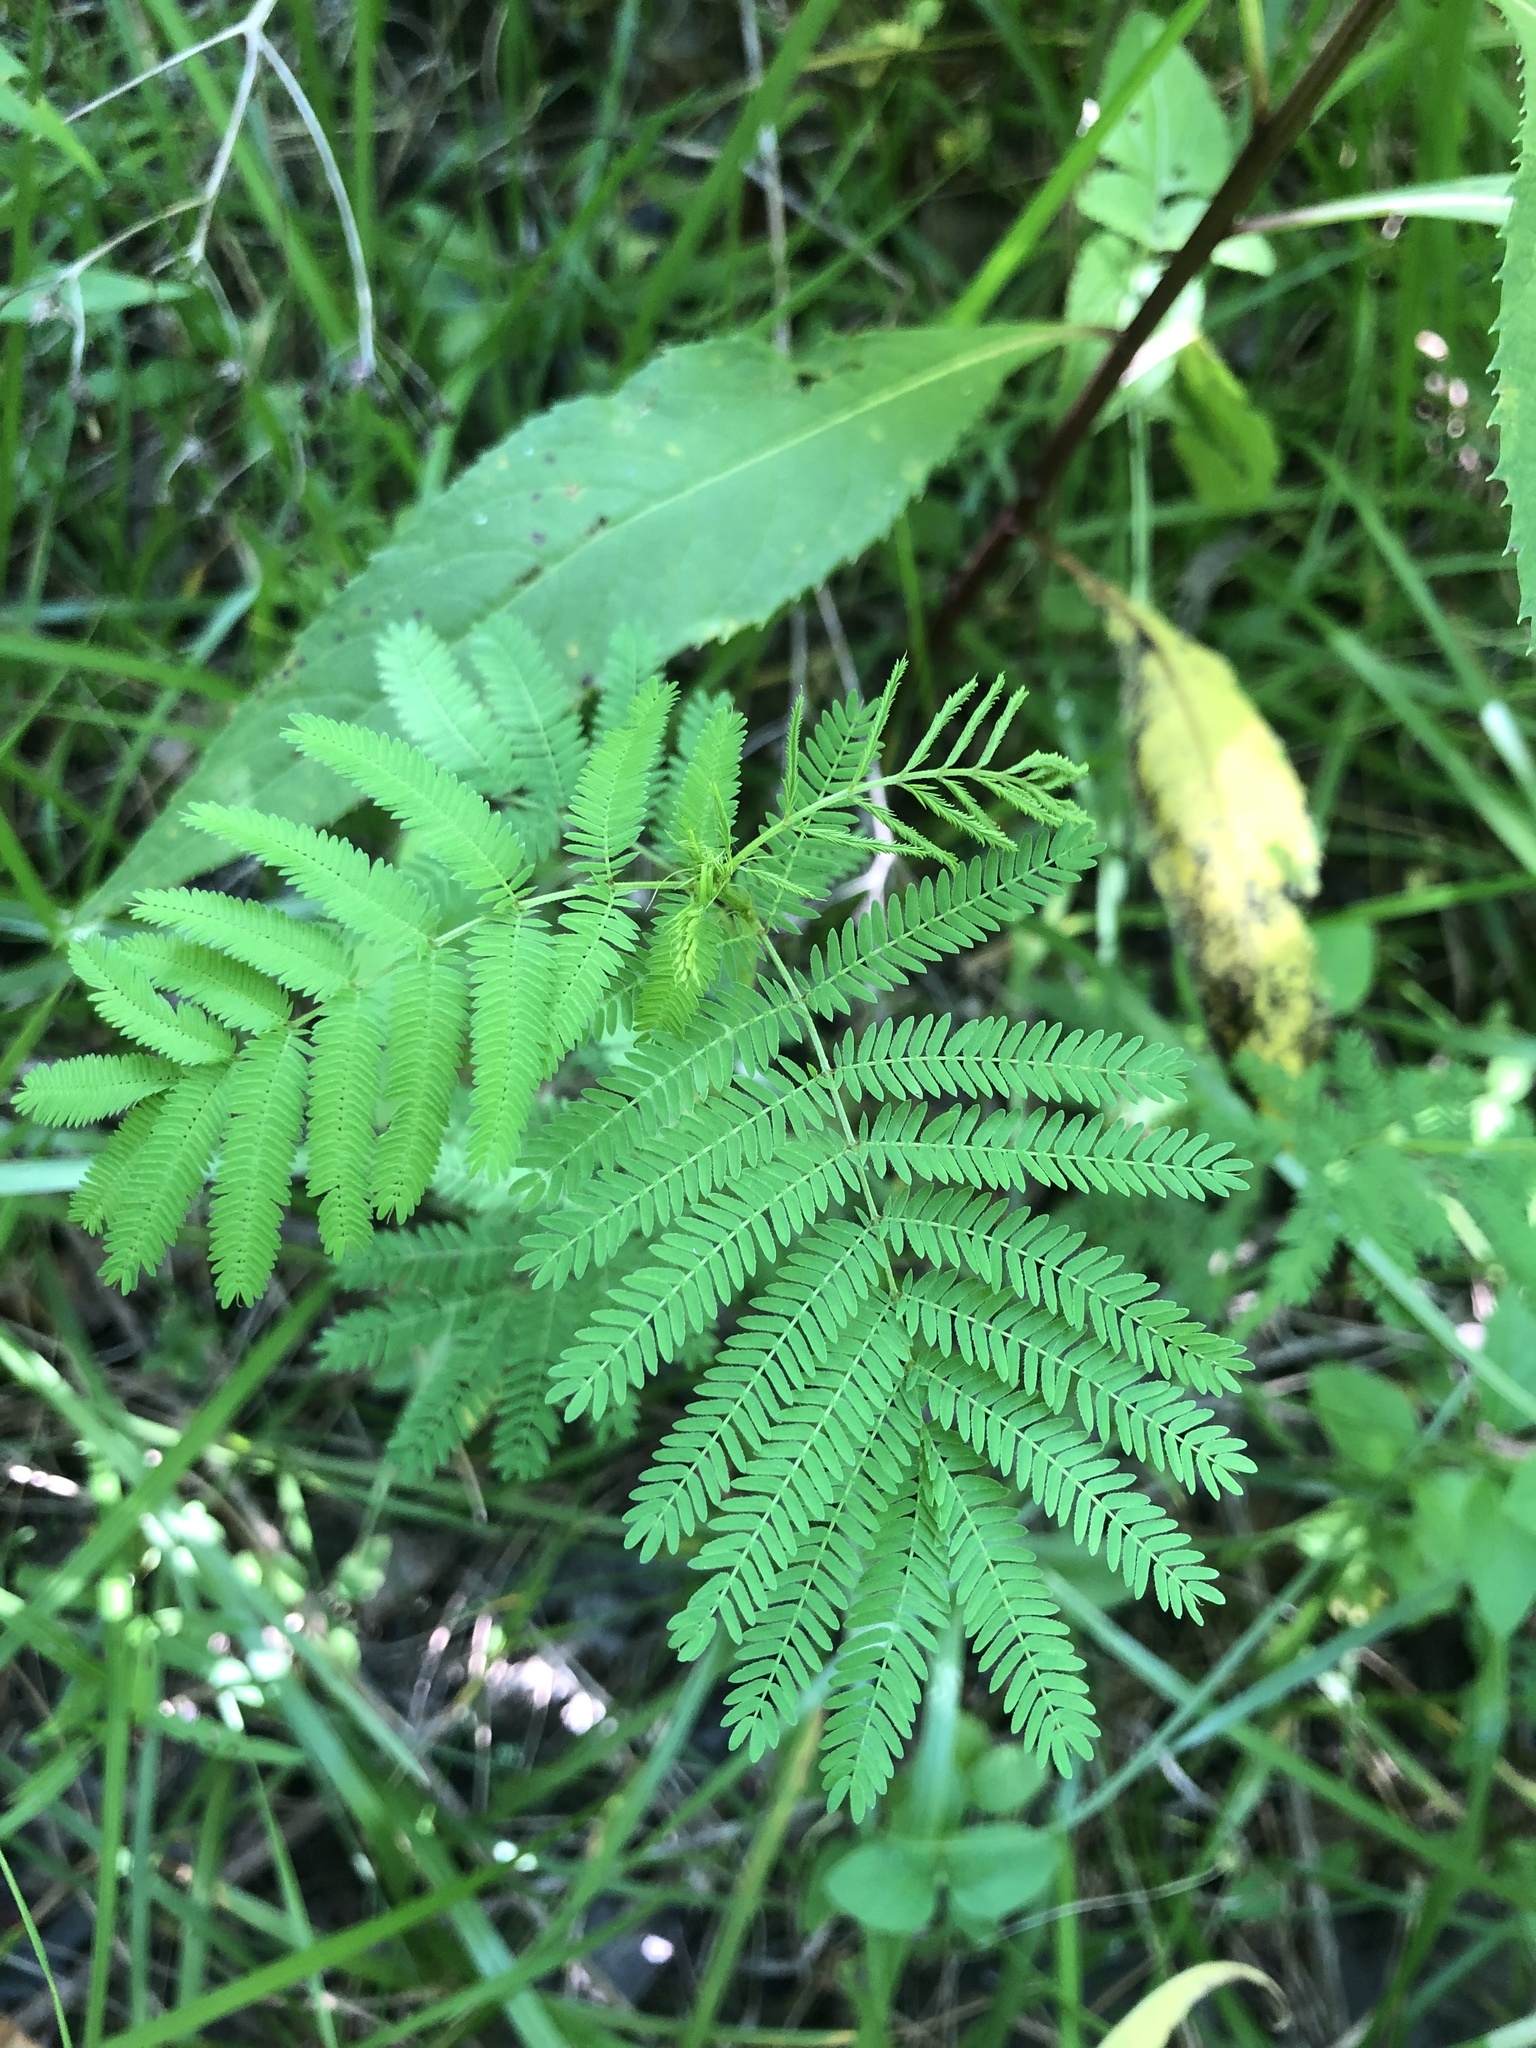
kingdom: Plantae
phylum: Tracheophyta
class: Magnoliopsida
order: Fabales
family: Fabaceae
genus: Desmanthus
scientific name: Desmanthus illinoensis
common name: Illinois bundle-flower
